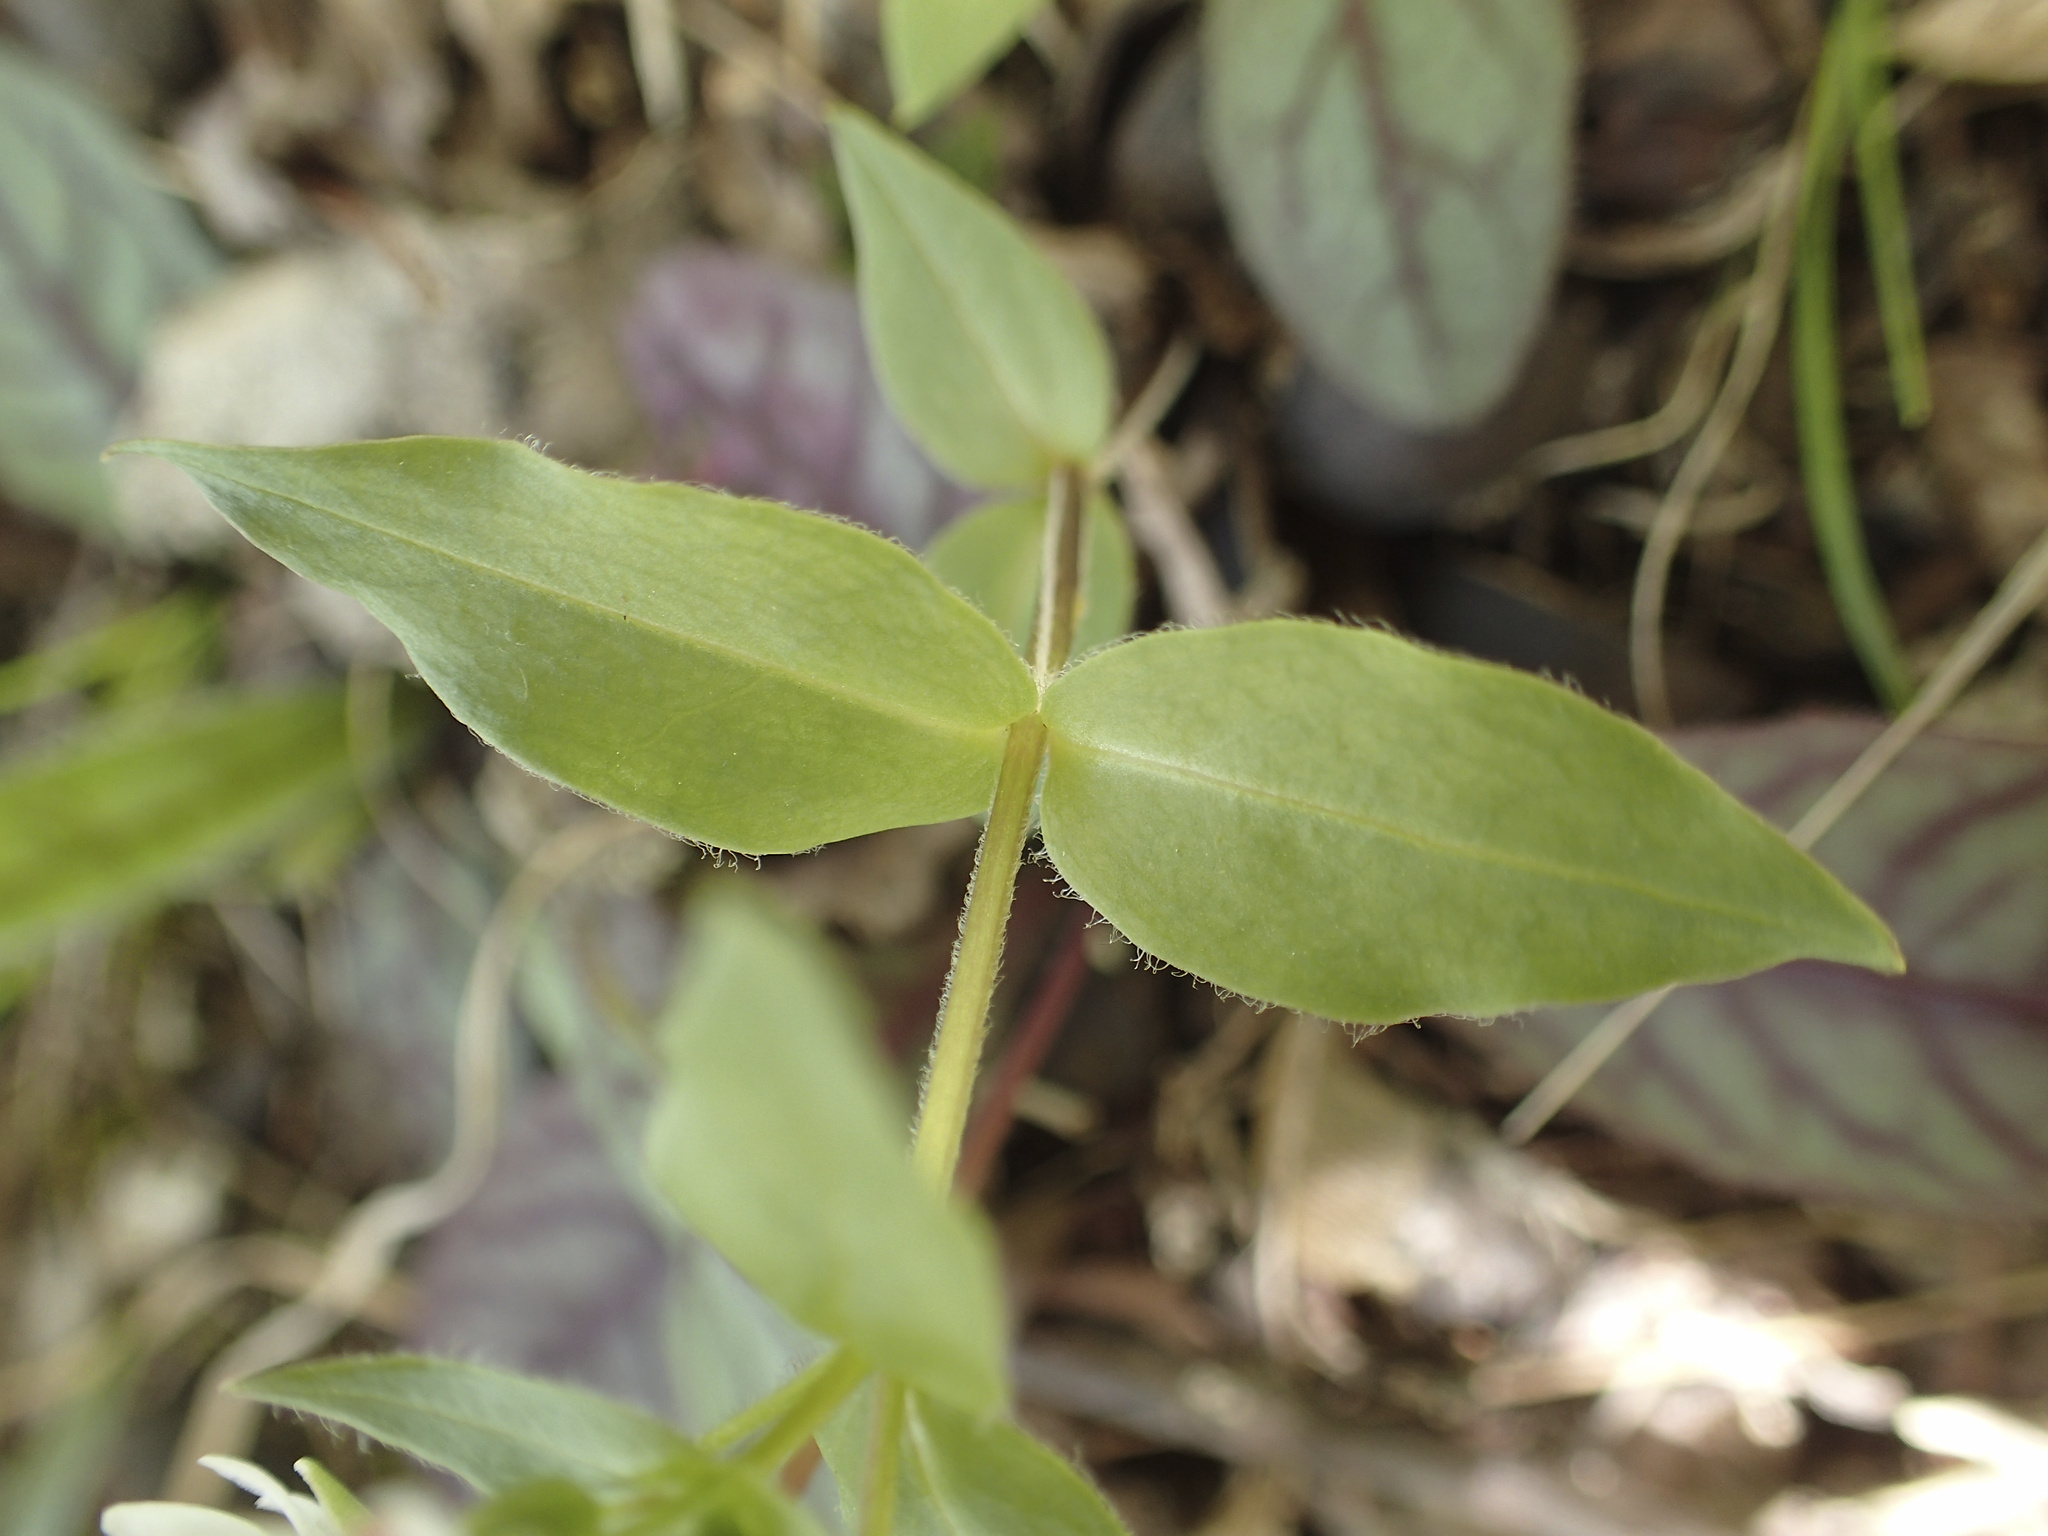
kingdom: Plantae
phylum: Tracheophyta
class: Magnoliopsida
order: Caryophyllales
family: Caryophyllaceae
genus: Stellaria
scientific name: Stellaria pubera
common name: Star chickweed
